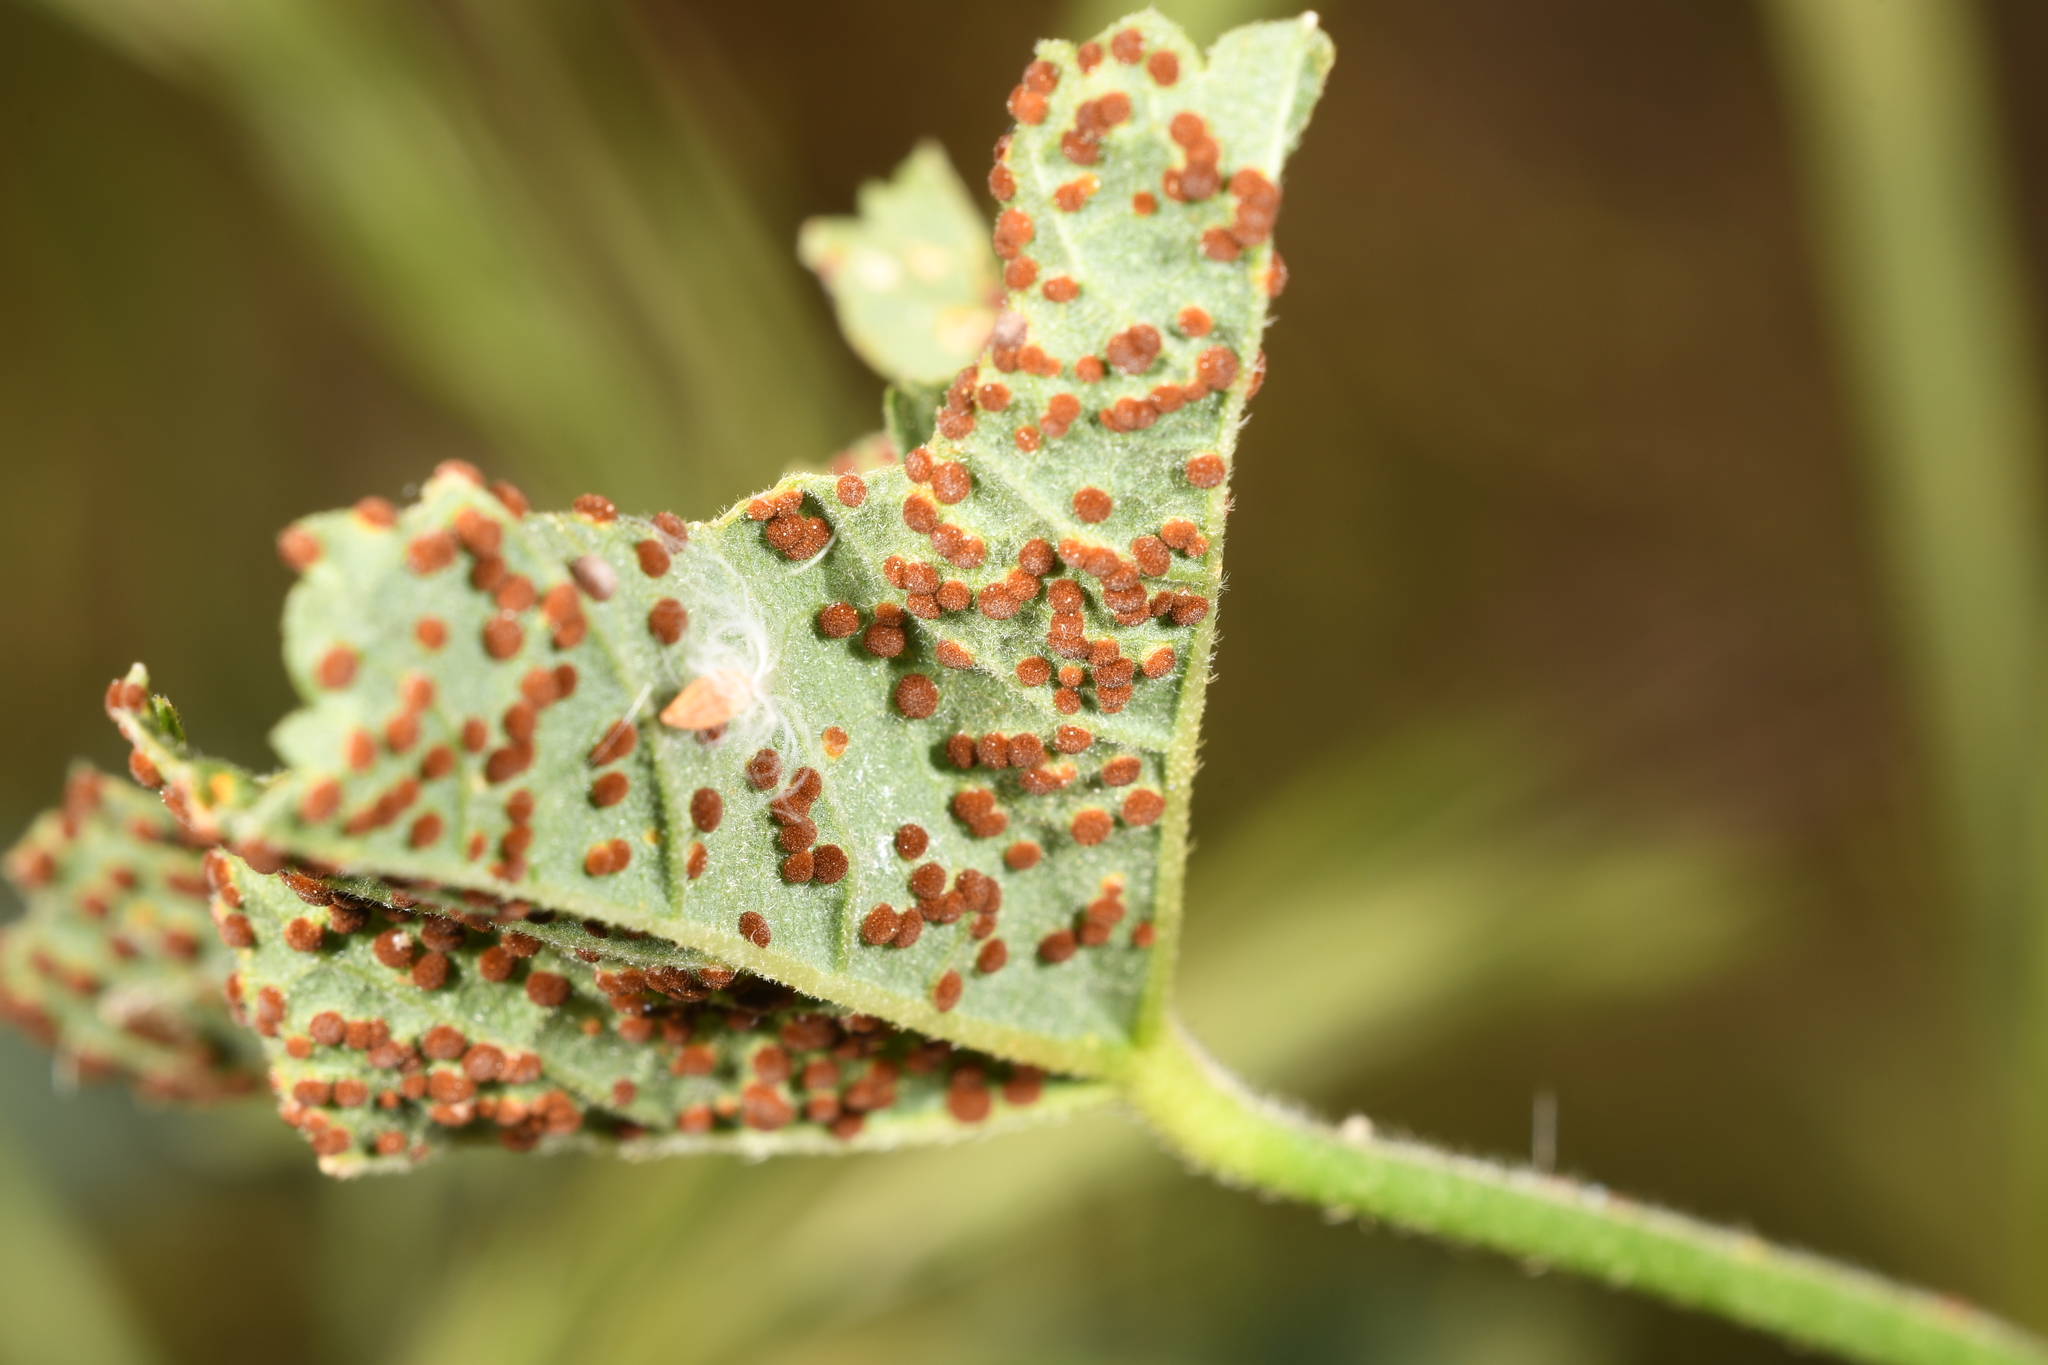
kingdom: Fungi
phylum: Basidiomycota
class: Pucciniomycetes
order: Pucciniales
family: Pucciniaceae
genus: Puccinia
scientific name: Puccinia malvacearum
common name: Hollyhock rust
